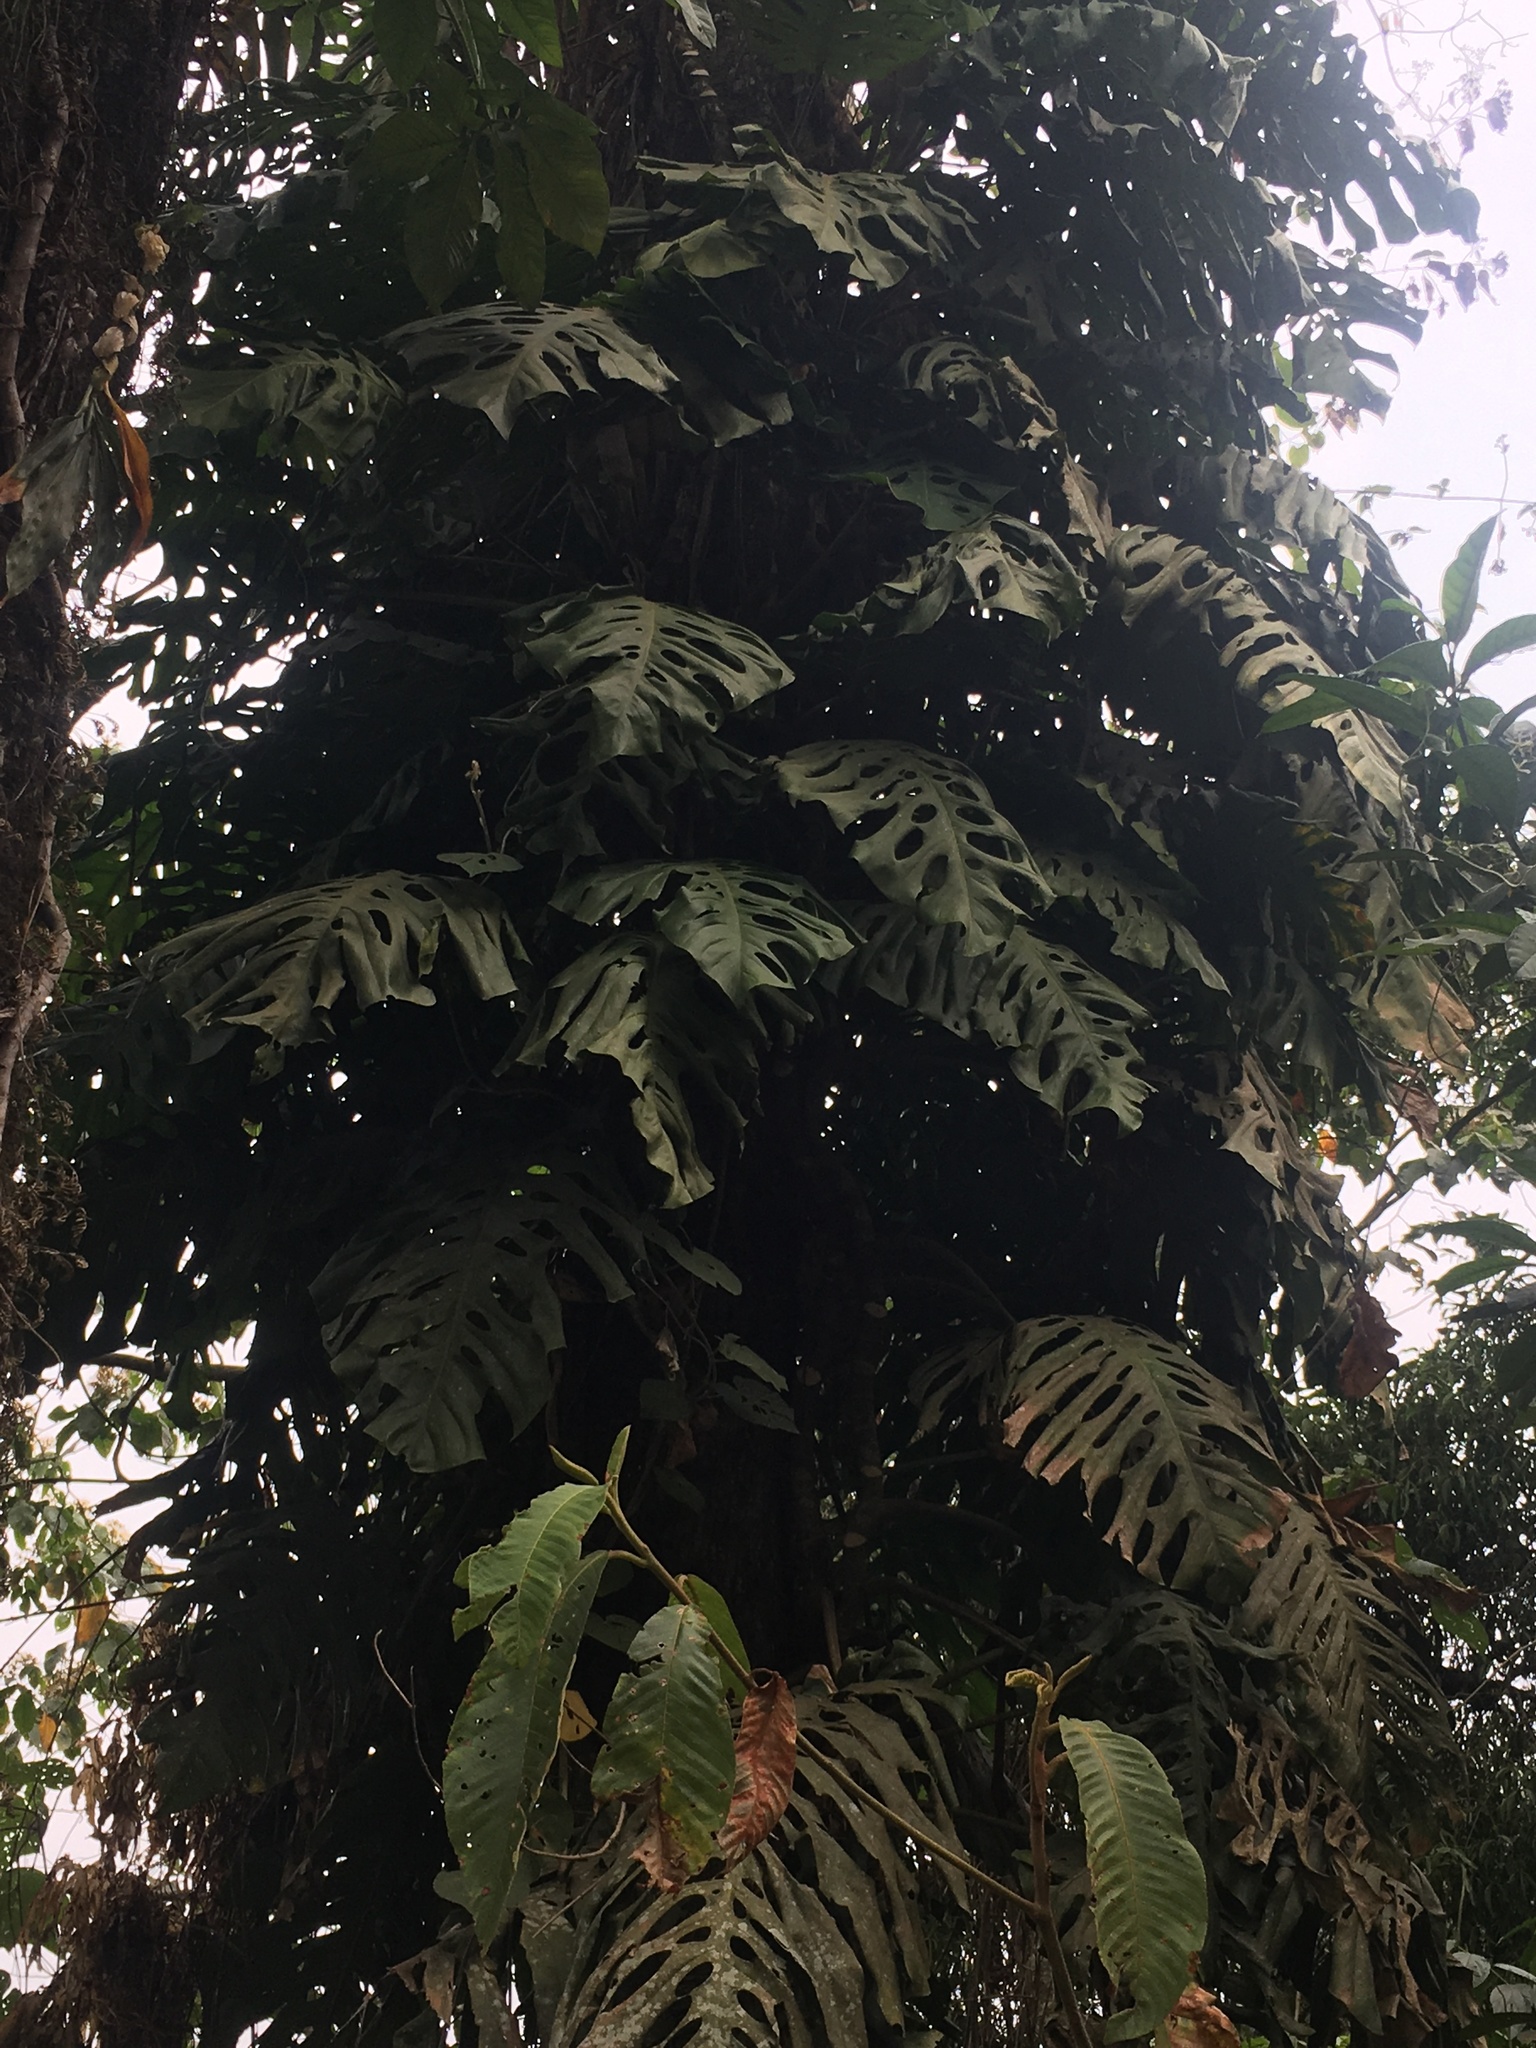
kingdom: Plantae
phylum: Tracheophyta
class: Liliopsida
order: Alismatales
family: Araceae
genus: Monstera
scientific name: Monstera punctulata
